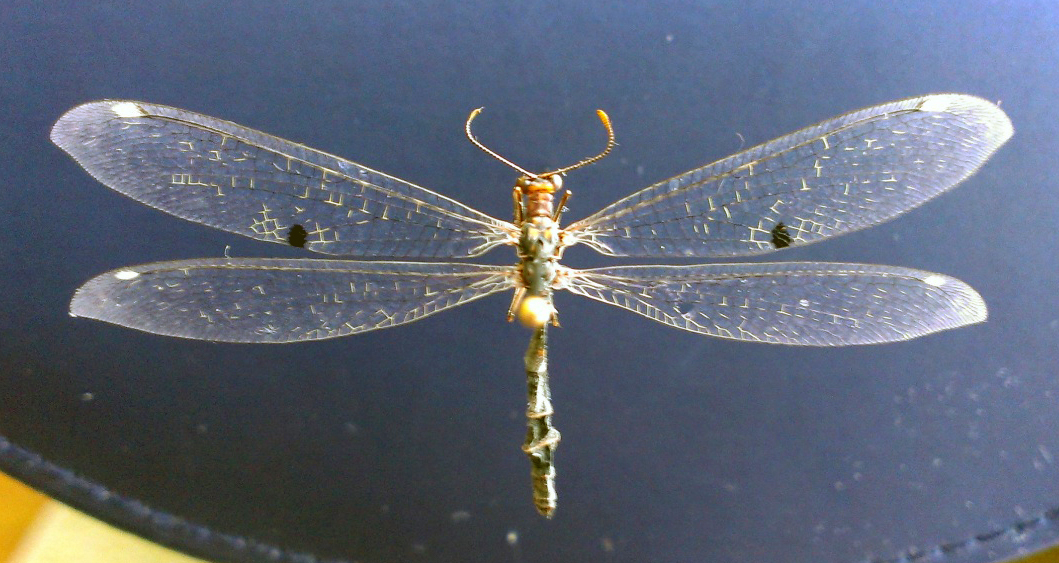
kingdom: Animalia
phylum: Arthropoda
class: Insecta
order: Neuroptera
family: Myrmeleontidae
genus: Megistopus
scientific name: Megistopus flavicornis
